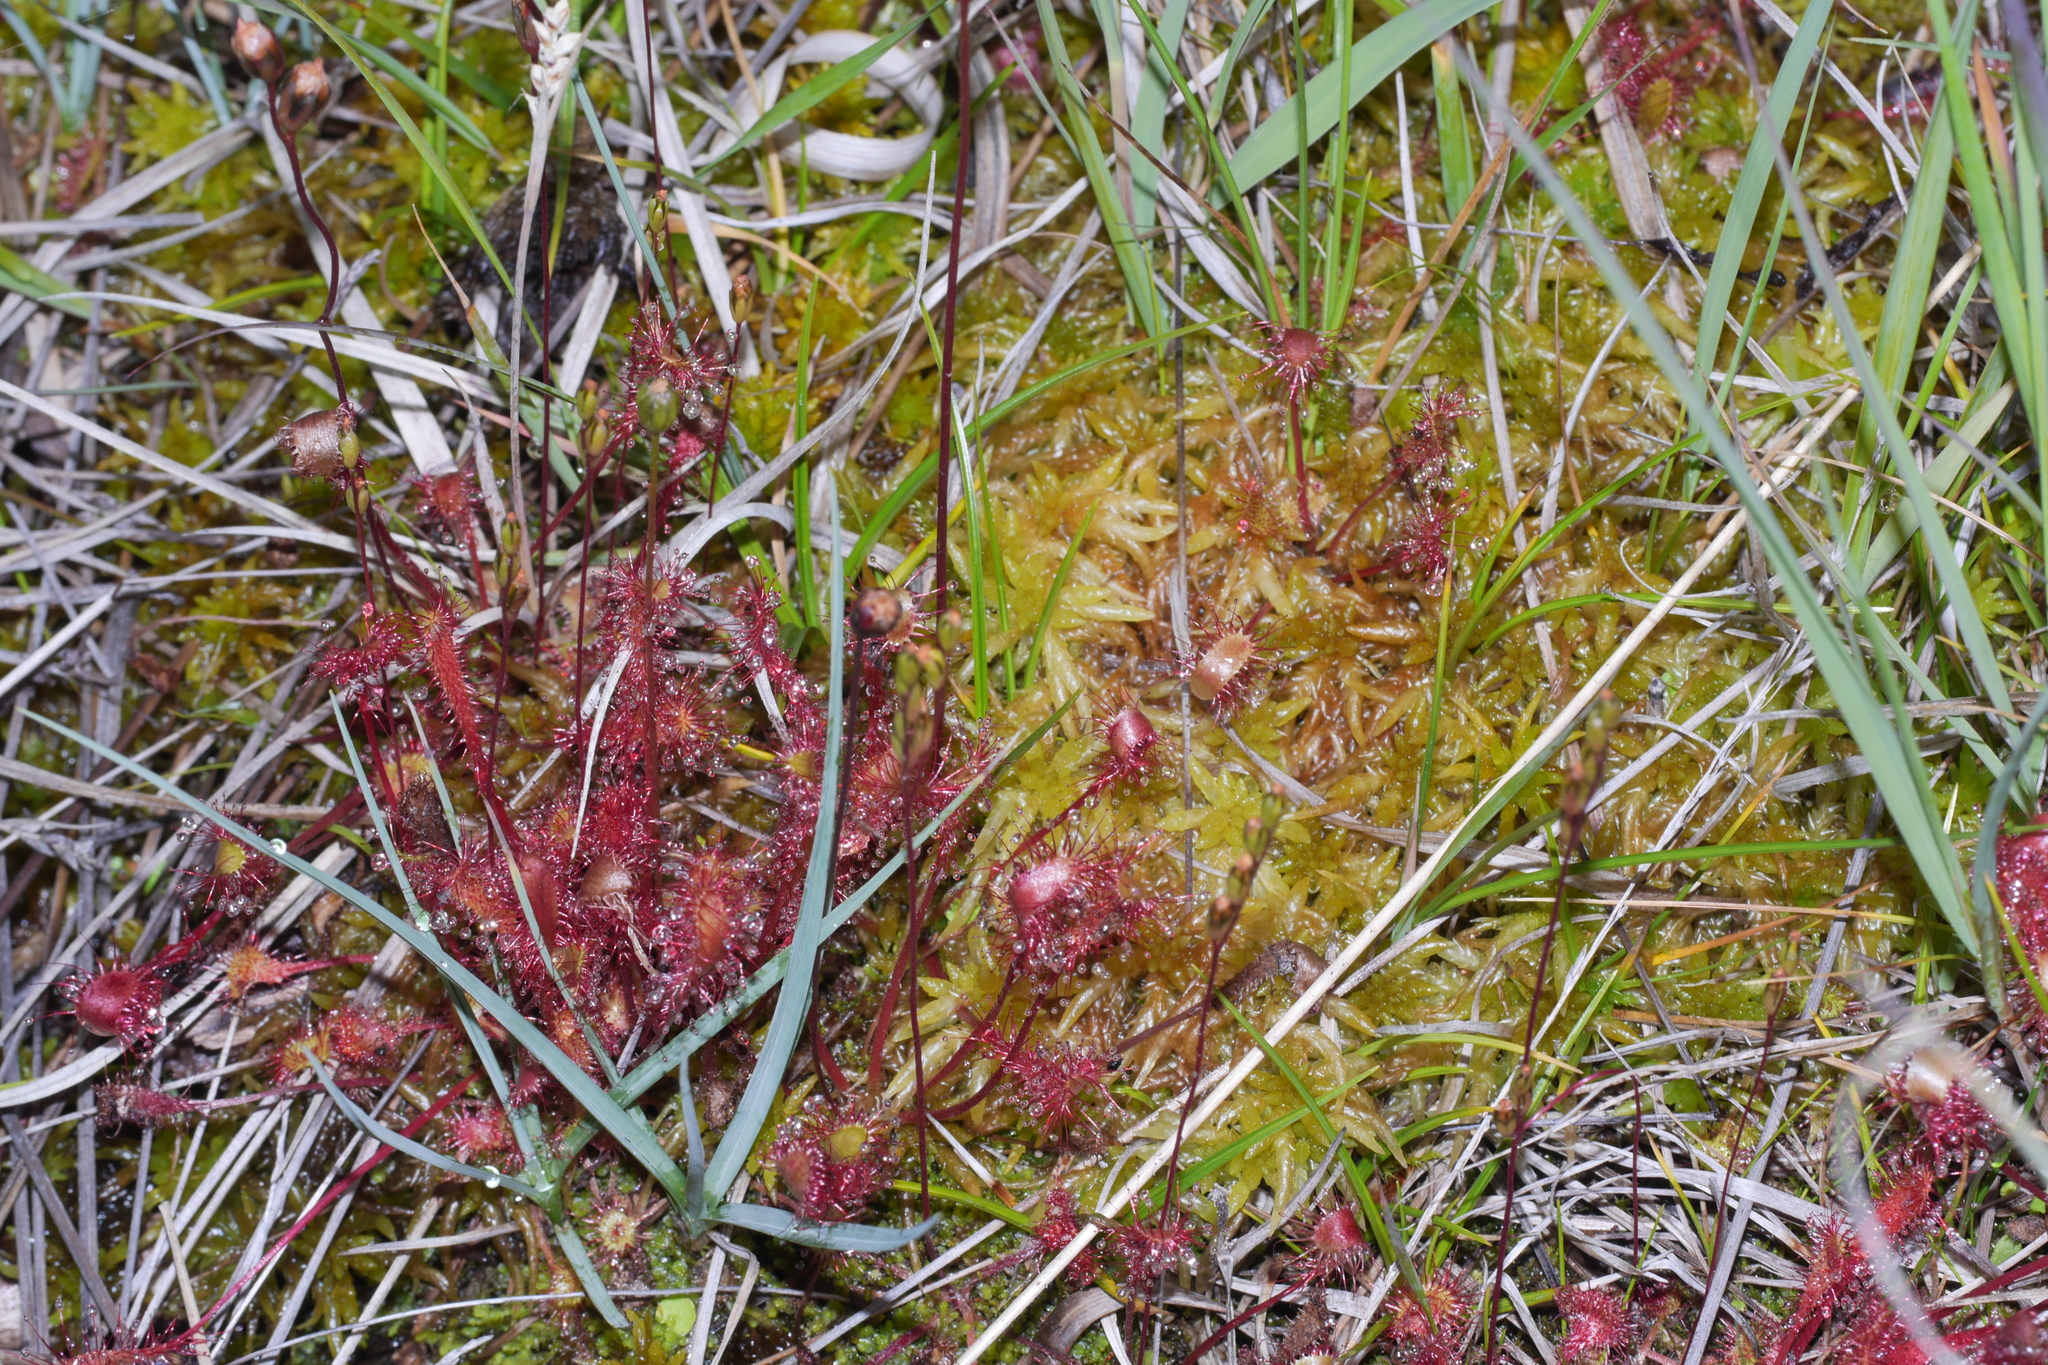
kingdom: Plantae
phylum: Tracheophyta
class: Magnoliopsida
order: Caryophyllales
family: Droseraceae
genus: Drosera
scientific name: Drosera anglica
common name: Great sundew
